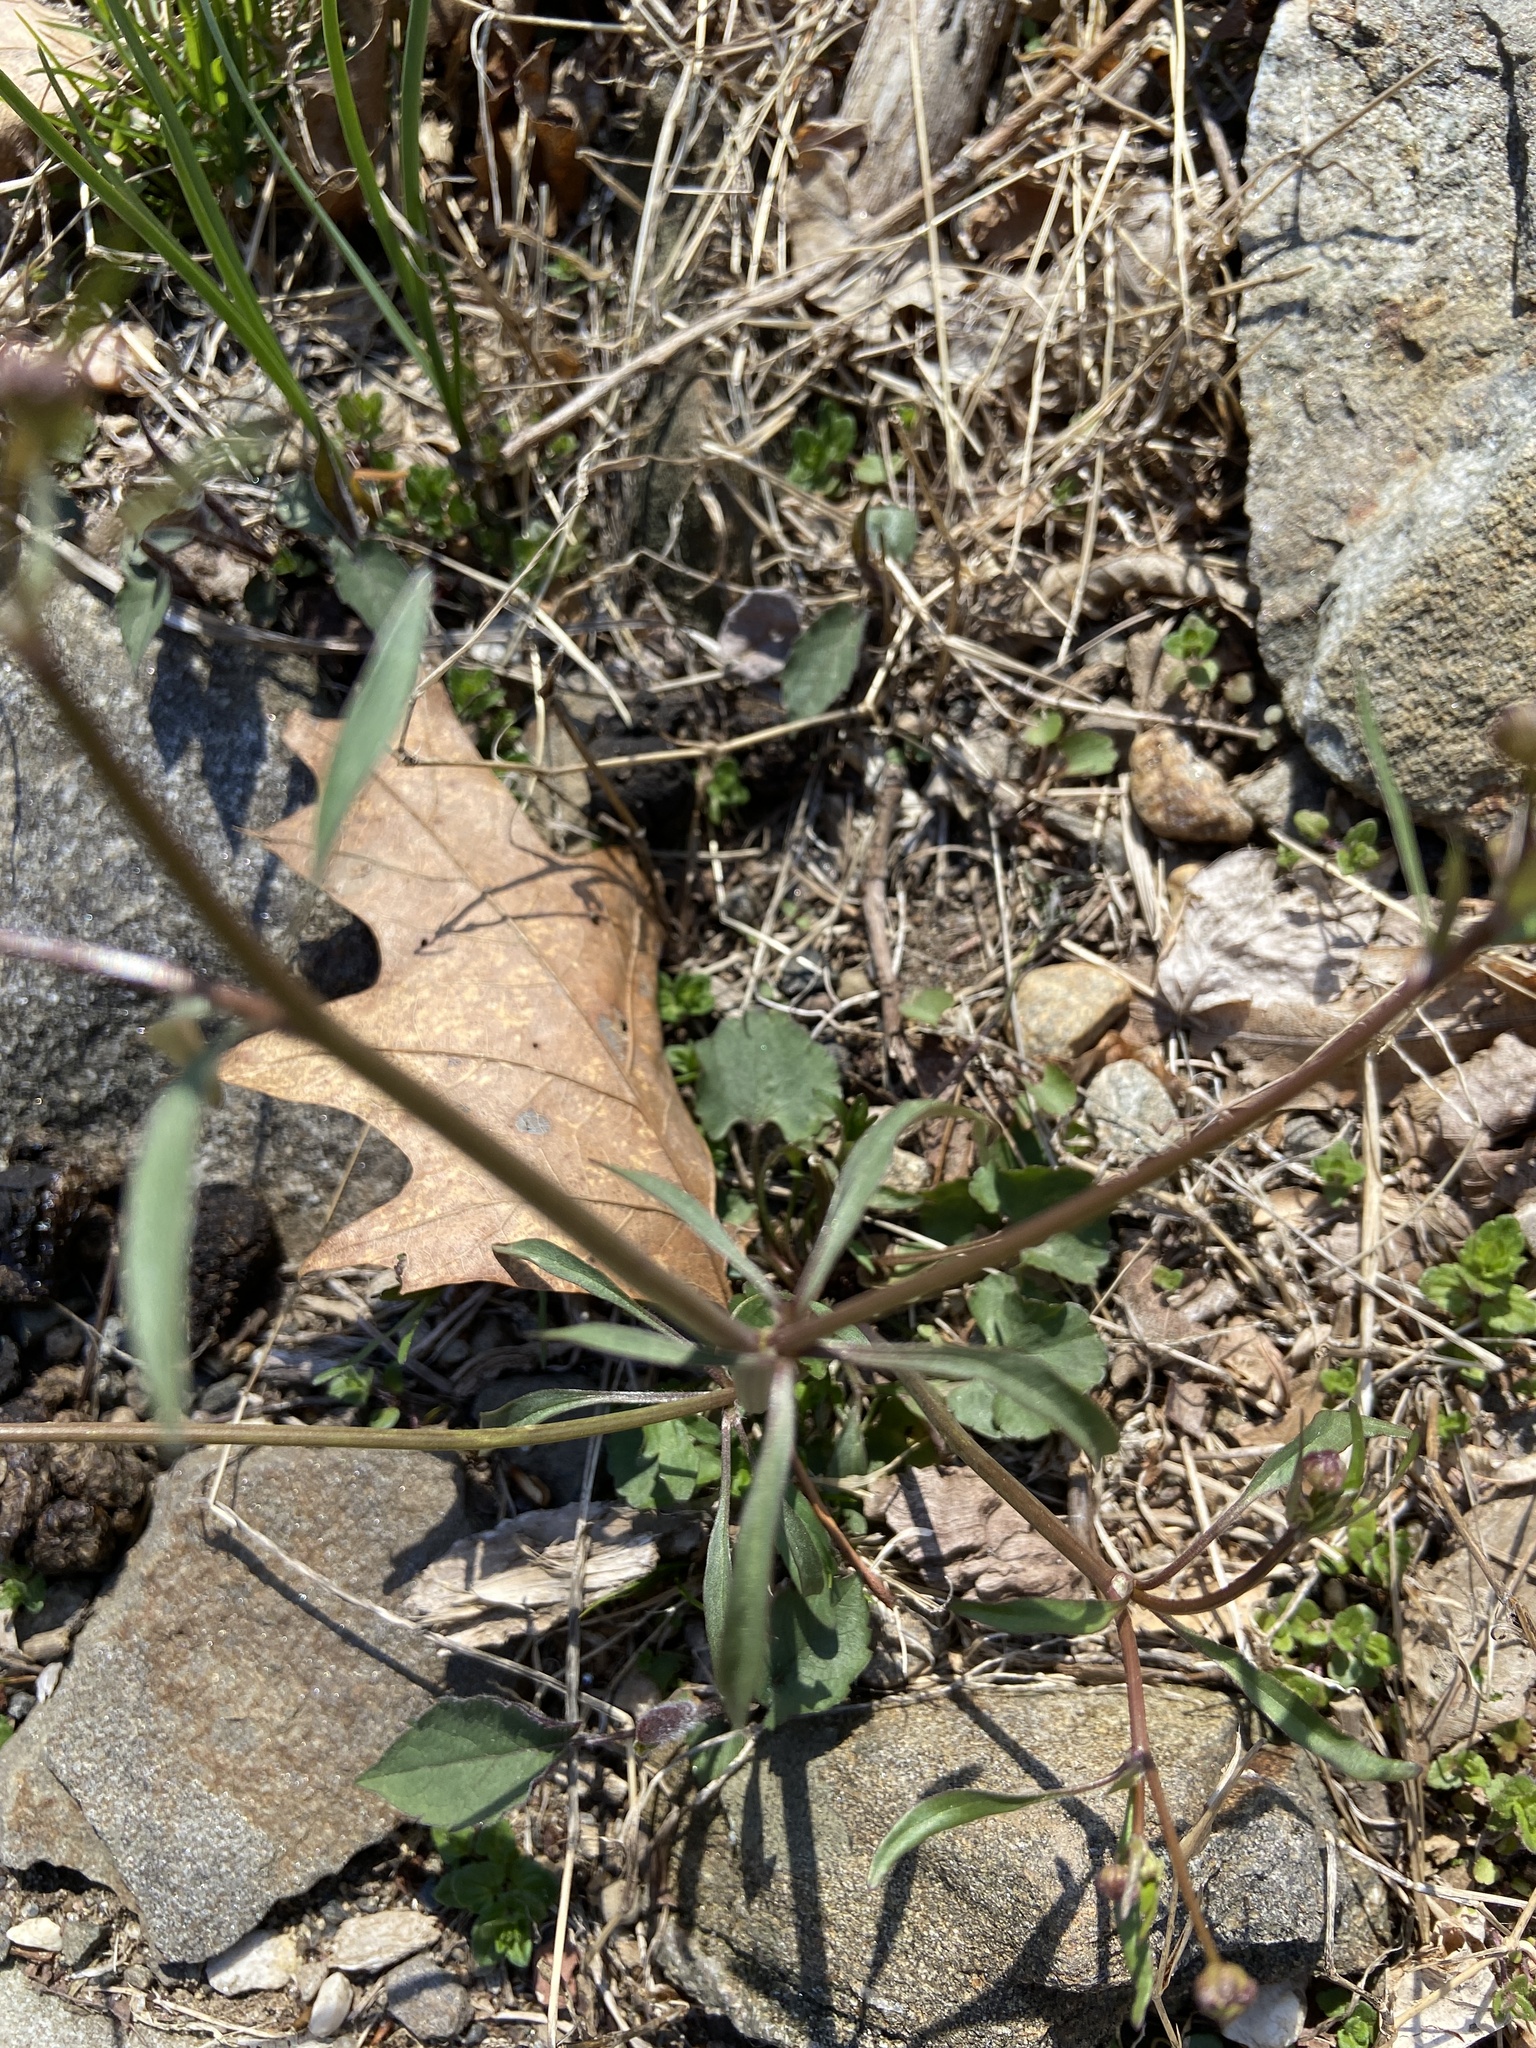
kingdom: Plantae
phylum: Tracheophyta
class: Magnoliopsida
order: Ranunculales
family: Ranunculaceae
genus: Ranunculus
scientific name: Ranunculus abortivus
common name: Early wood buttercup
